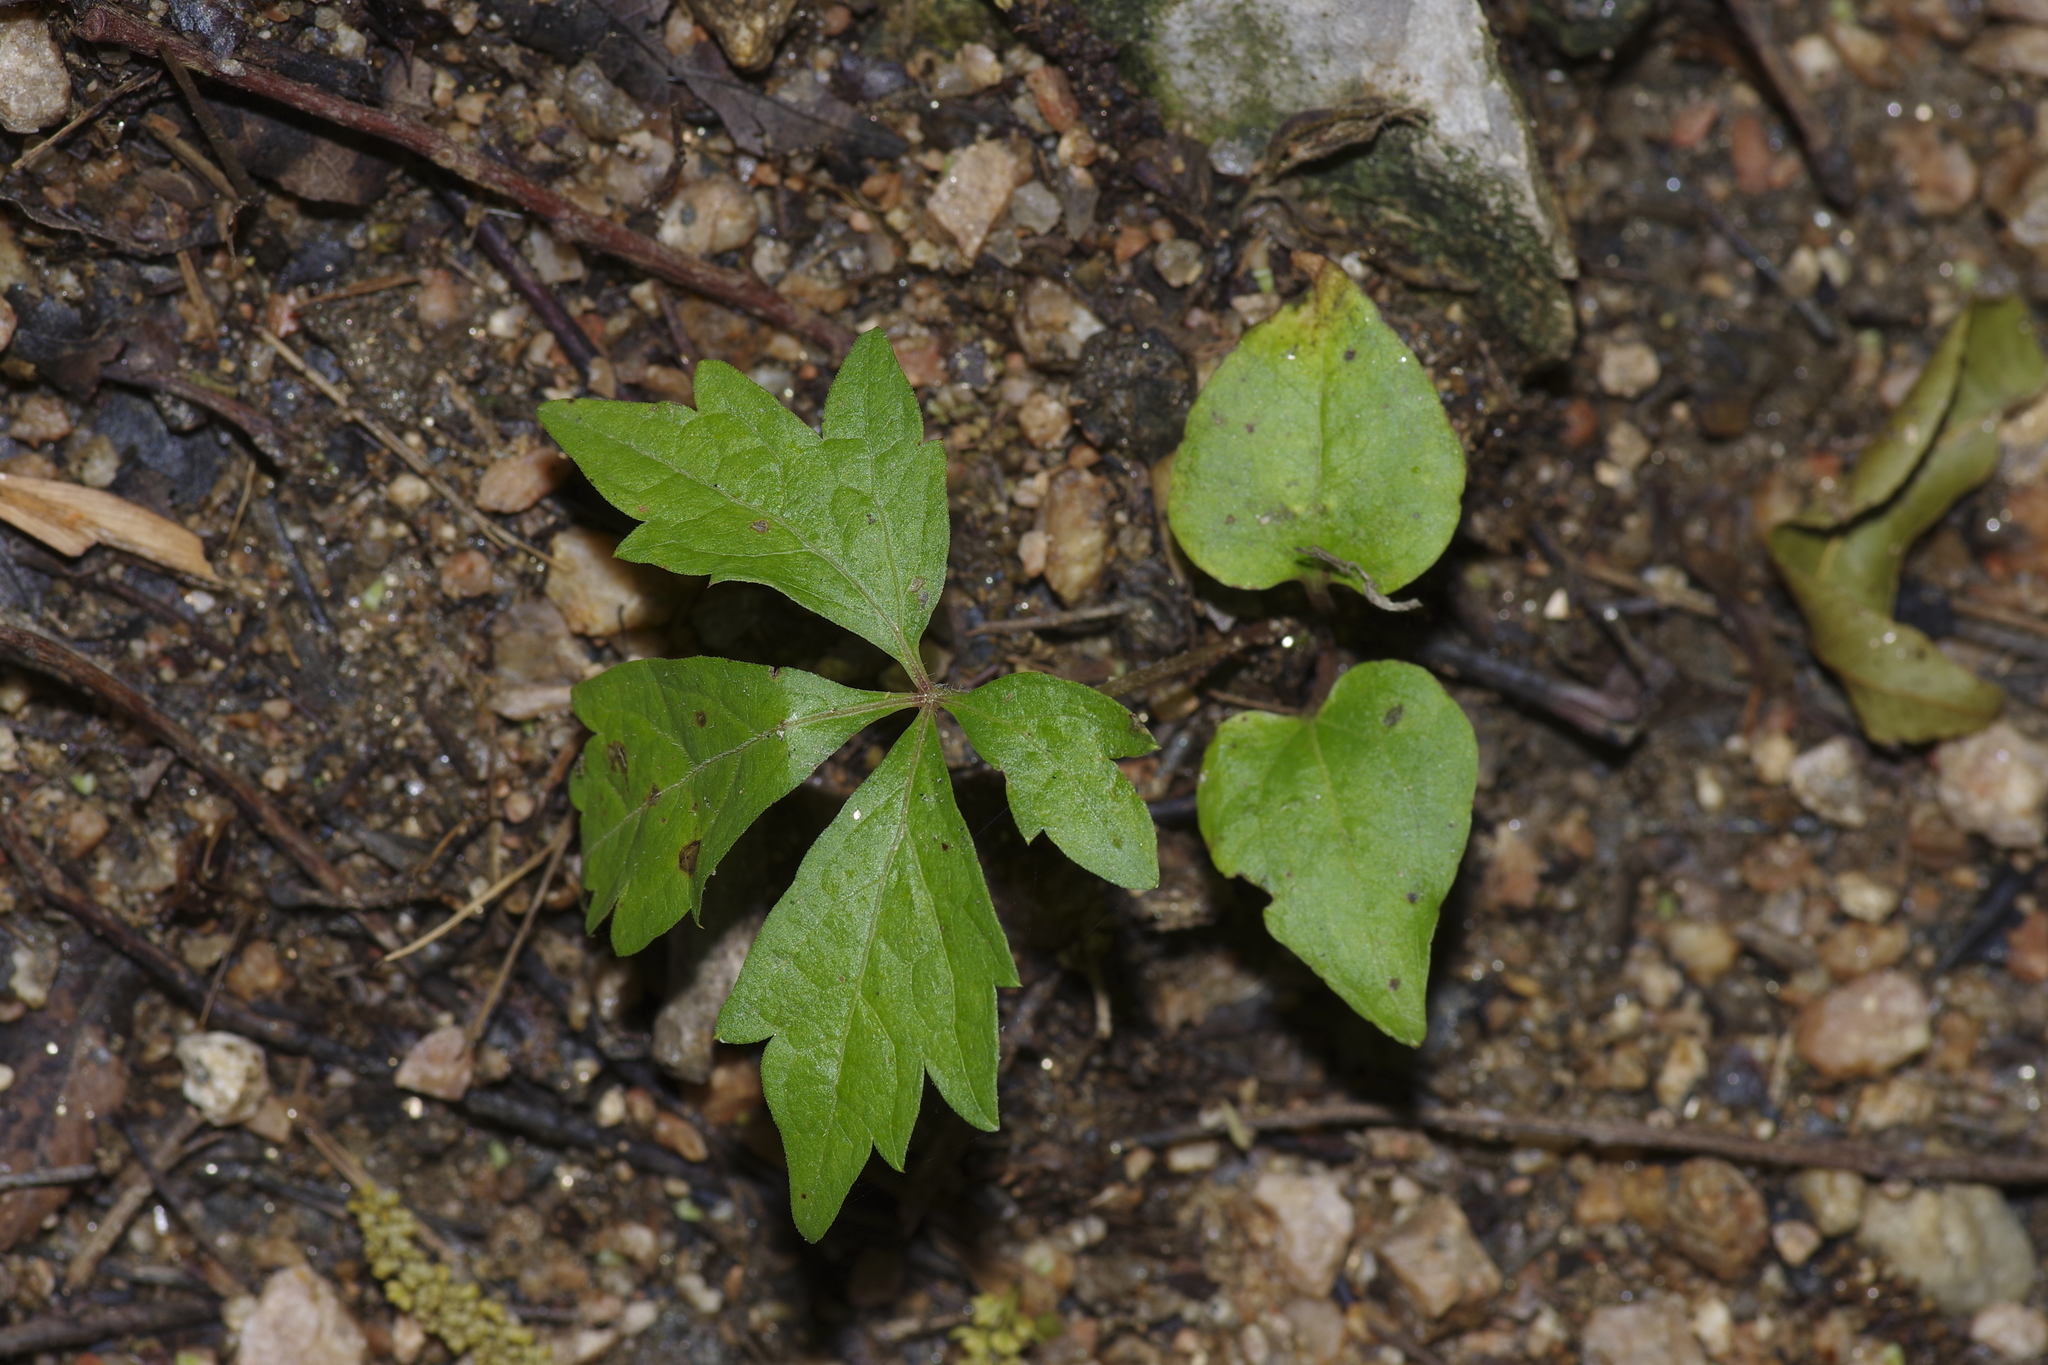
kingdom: Plantae
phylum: Tracheophyta
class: Magnoliopsida
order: Vitales
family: Vitaceae
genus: Parthenocissus
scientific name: Parthenocissus quinquefolia
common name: Virginia-creeper
